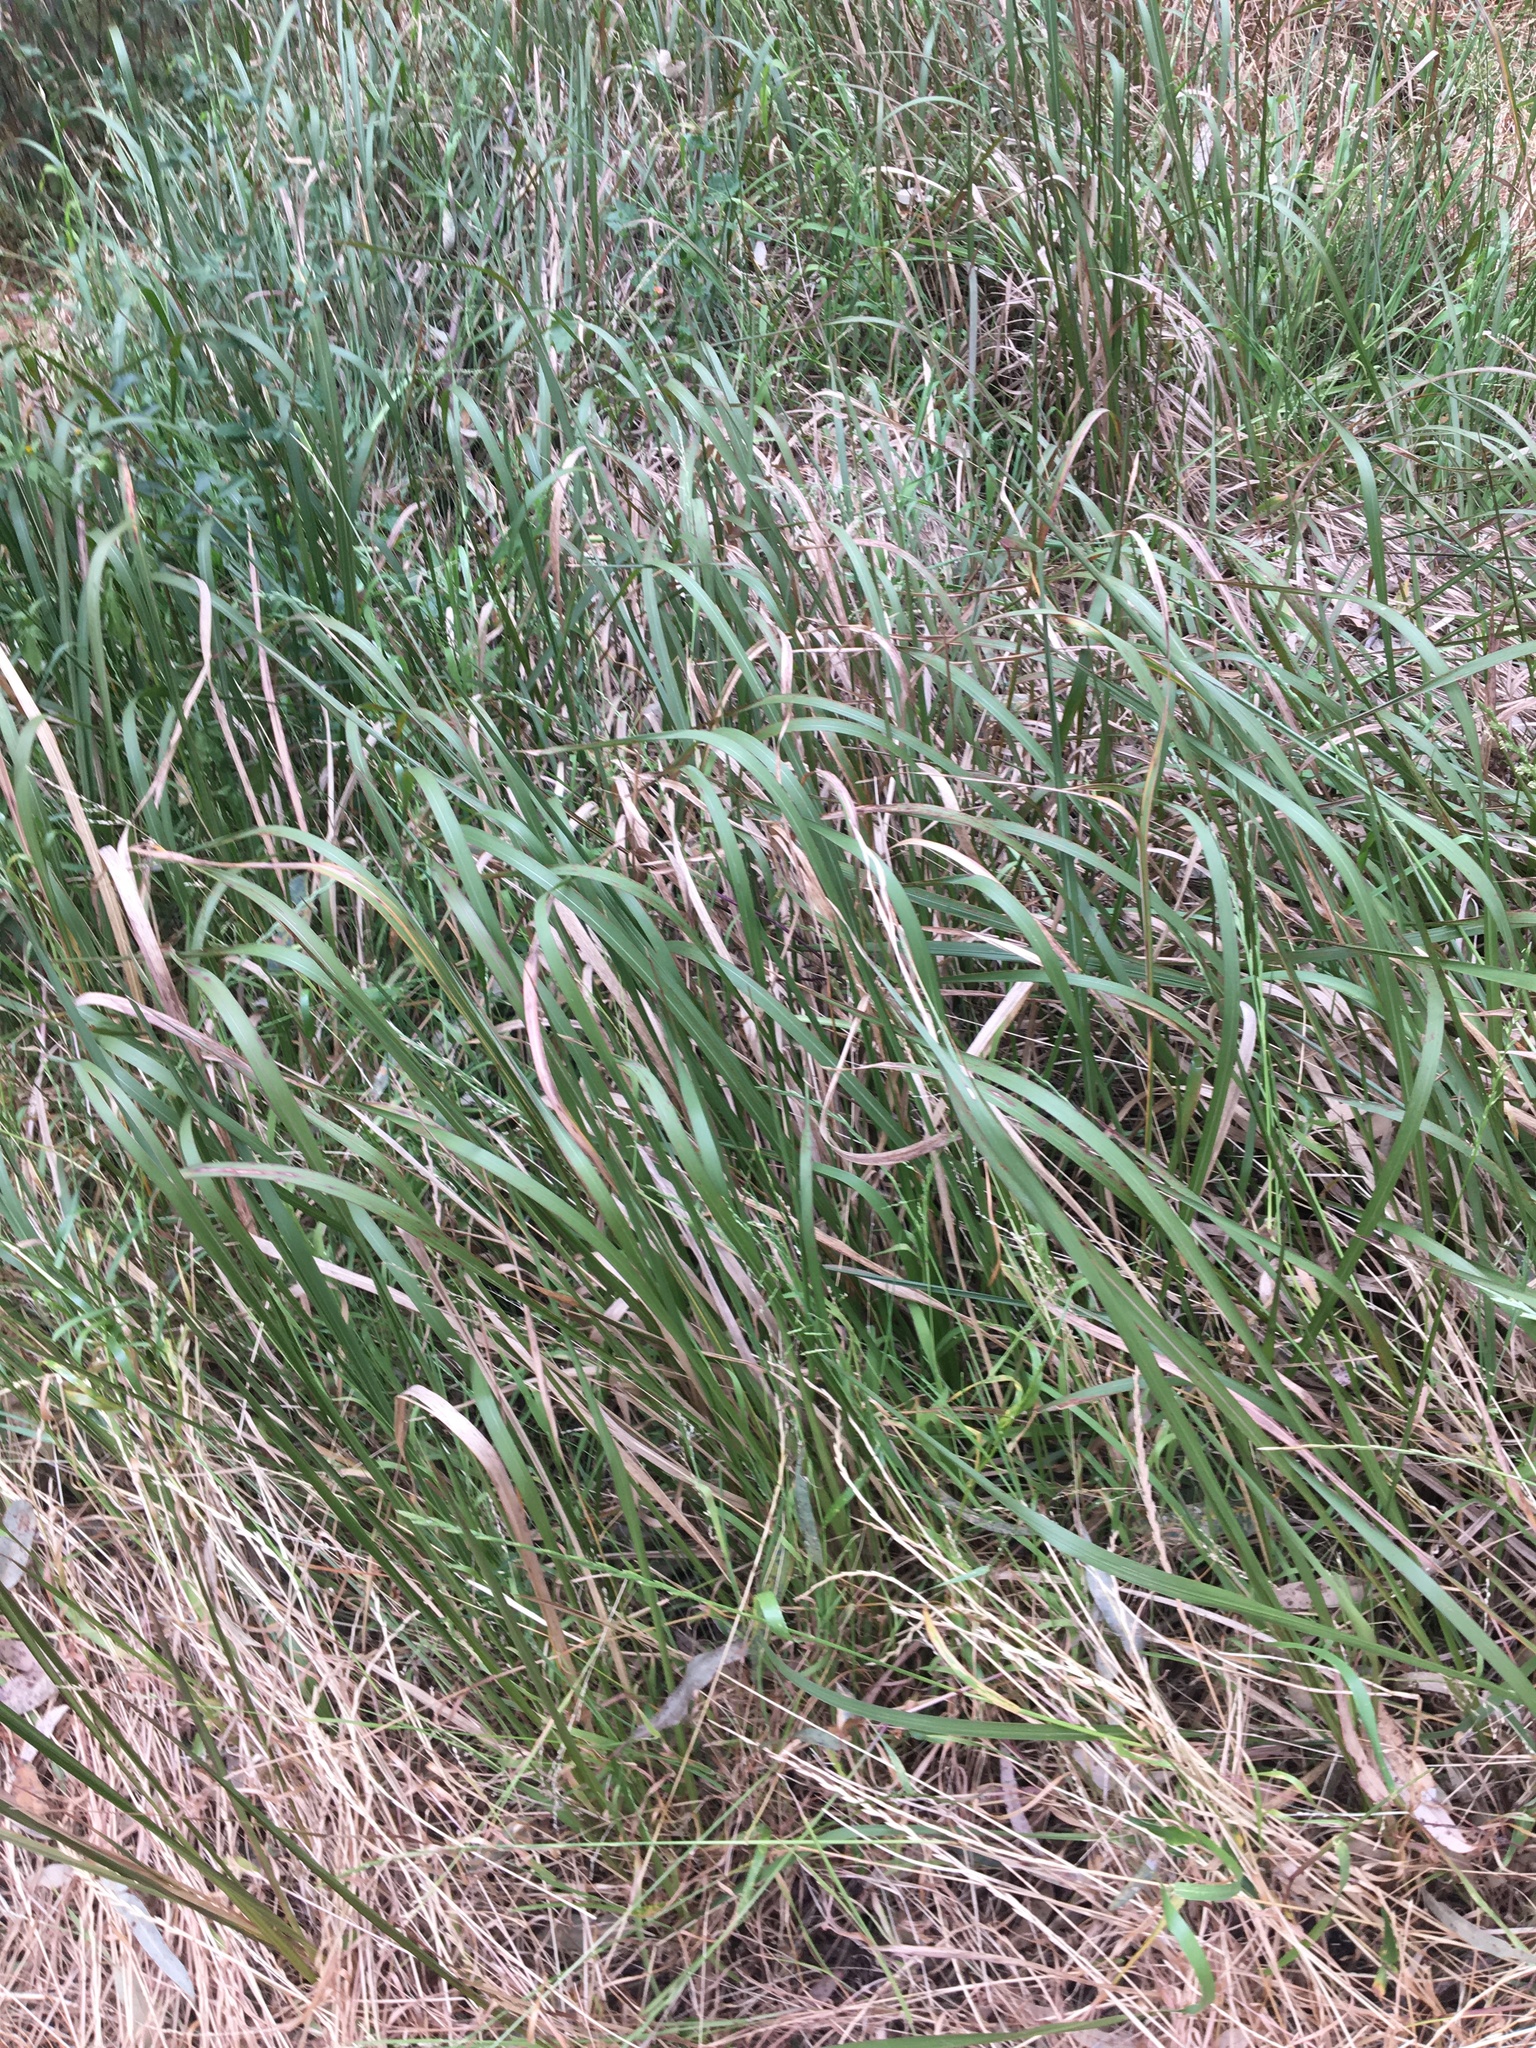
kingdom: Plantae
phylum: Tracheophyta
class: Liliopsida
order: Poales
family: Poaceae
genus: Imperata
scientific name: Imperata cylindrica
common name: Cogongrass
